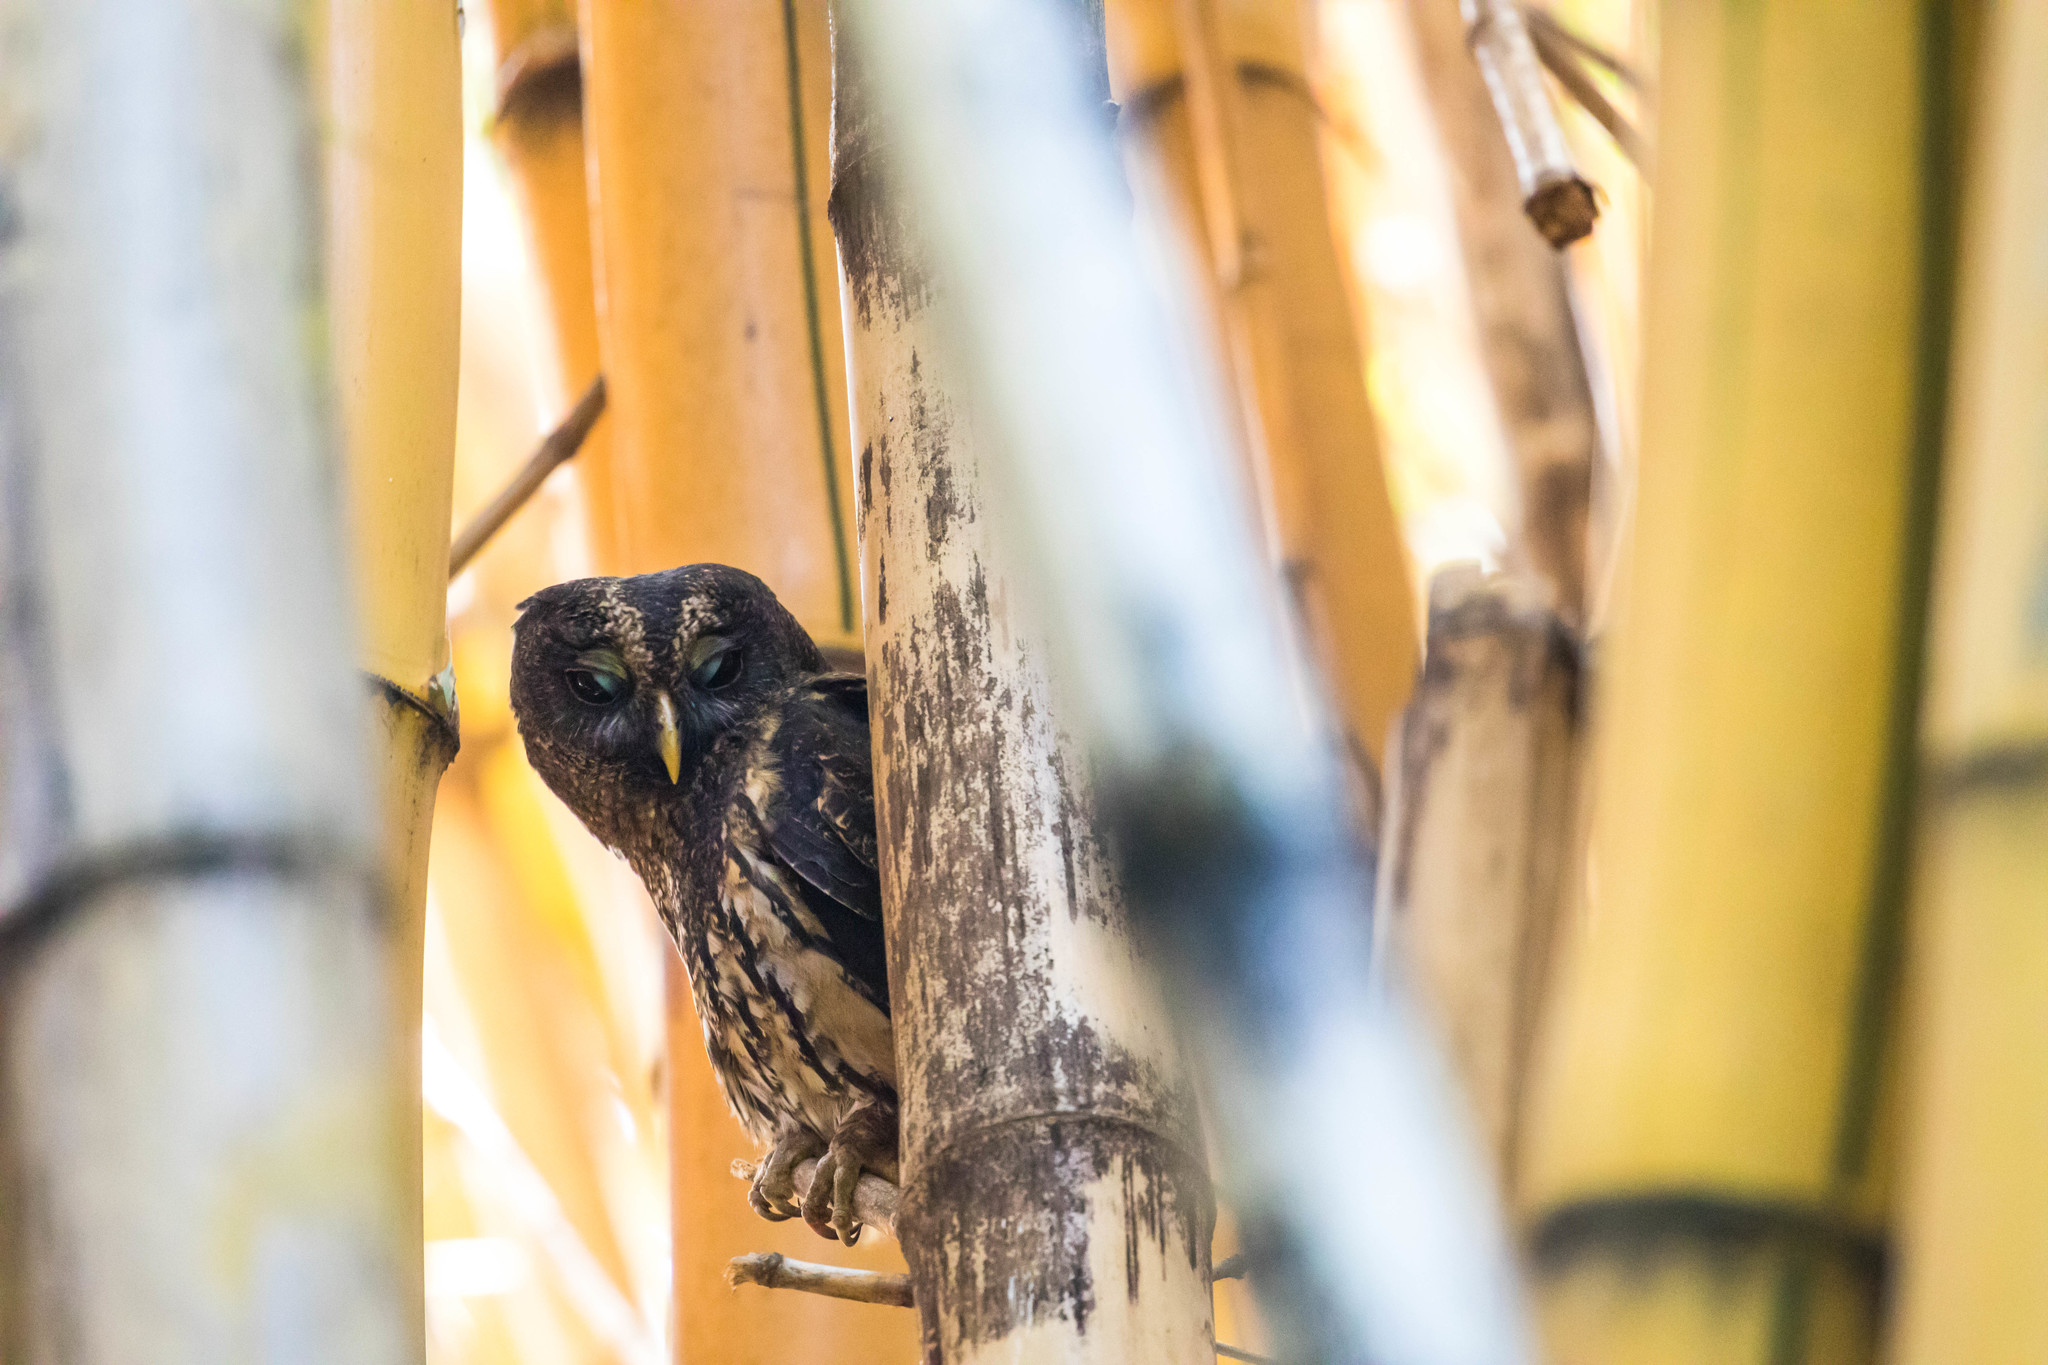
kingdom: Animalia
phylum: Chordata
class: Aves
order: Strigiformes
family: Strigidae
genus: Strix
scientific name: Strix virgata
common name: Mottled owl
